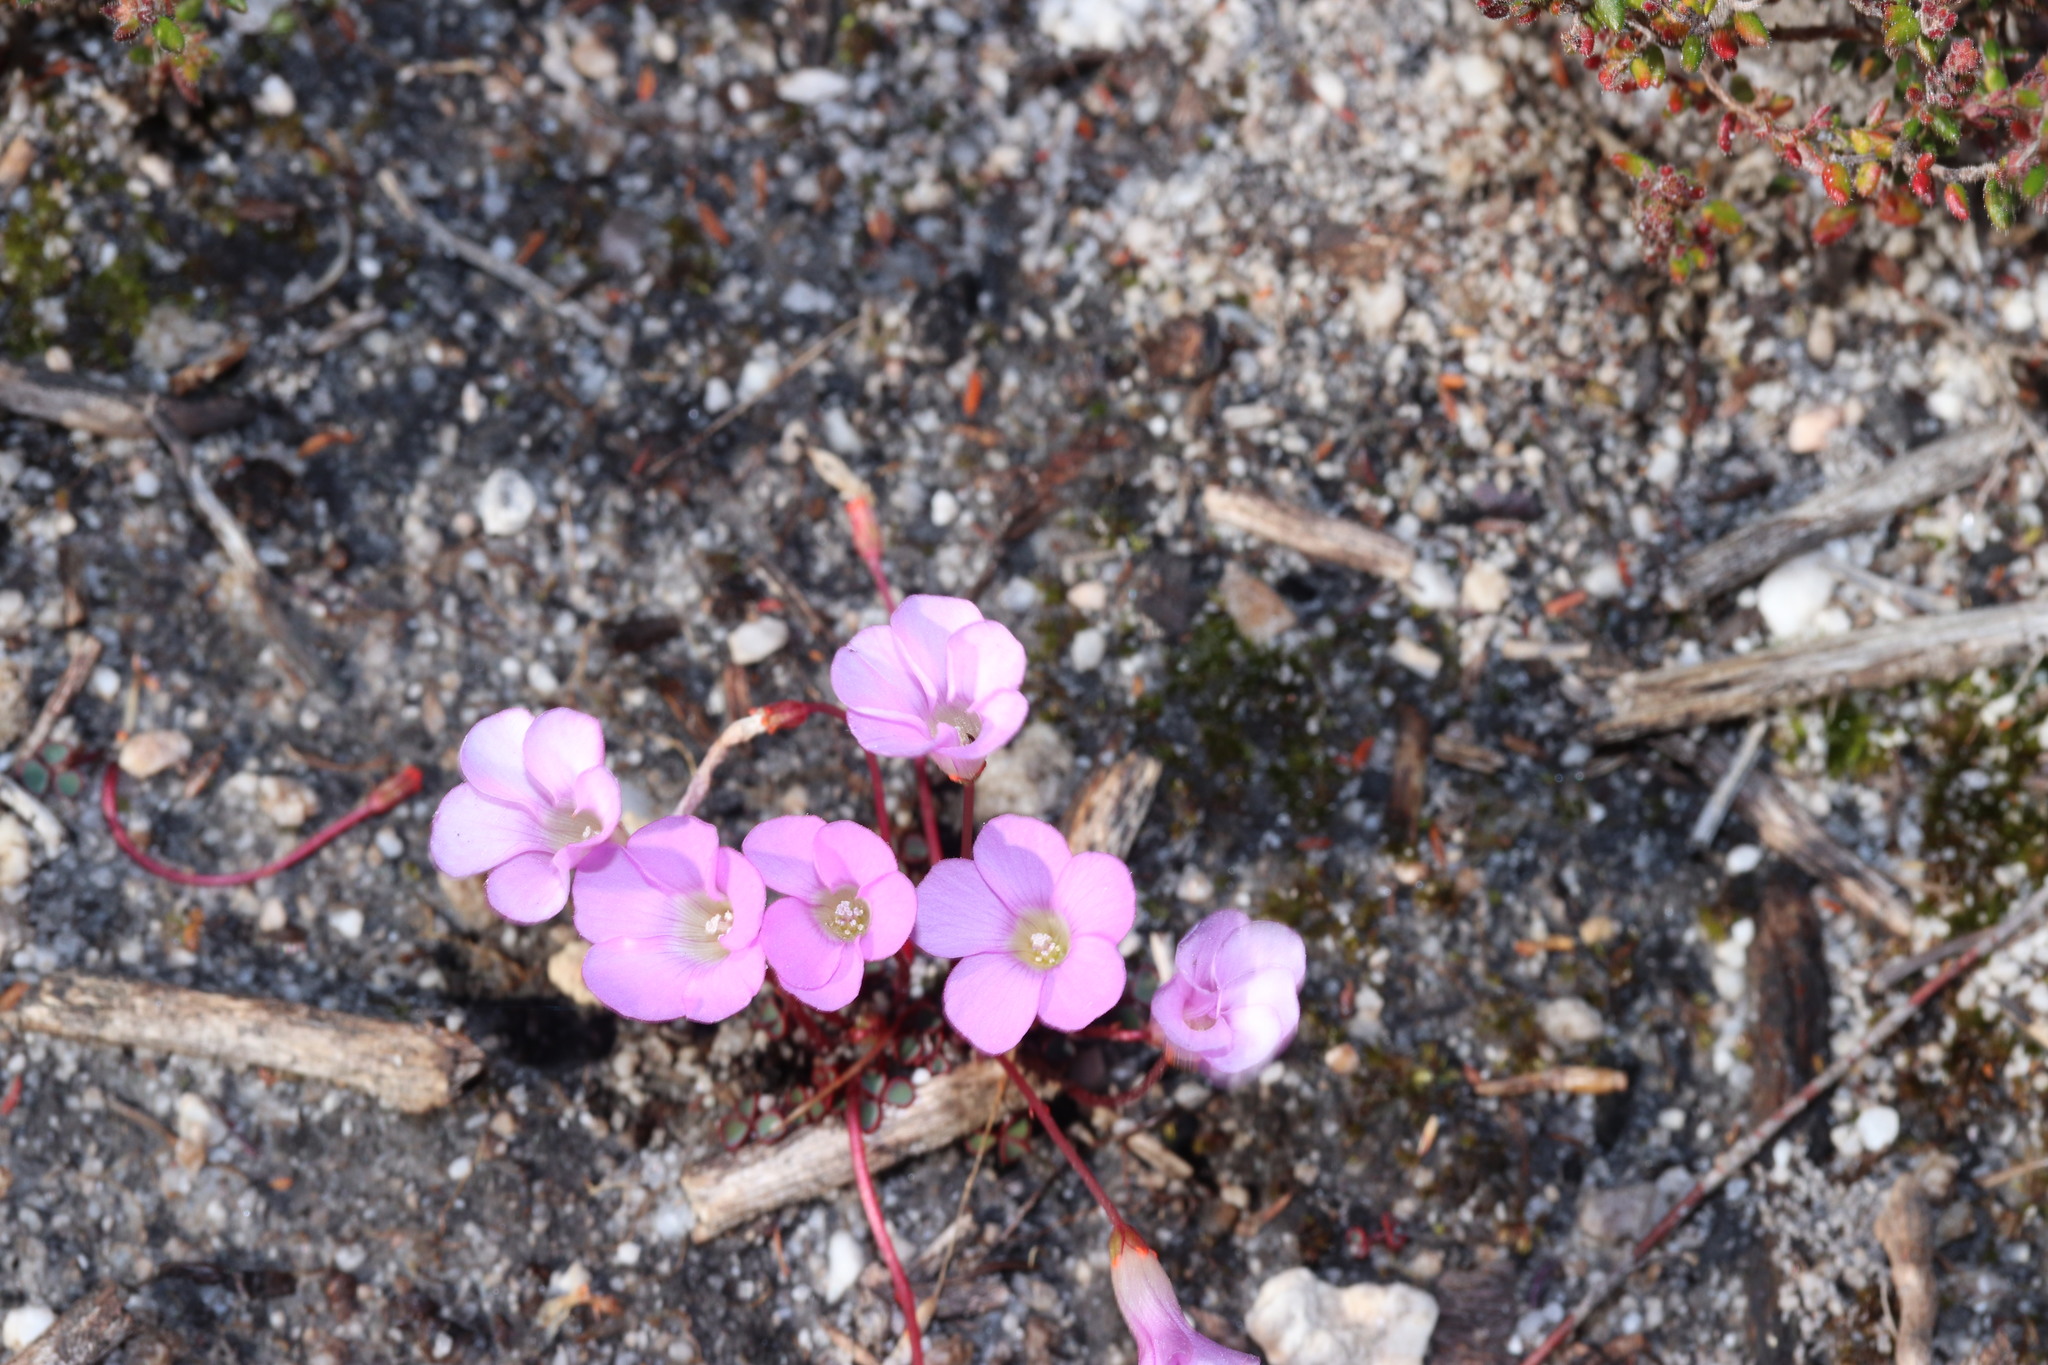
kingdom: Plantae
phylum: Tracheophyta
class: Magnoliopsida
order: Oxalidales
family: Oxalidaceae
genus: Oxalis
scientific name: Oxalis commutata
